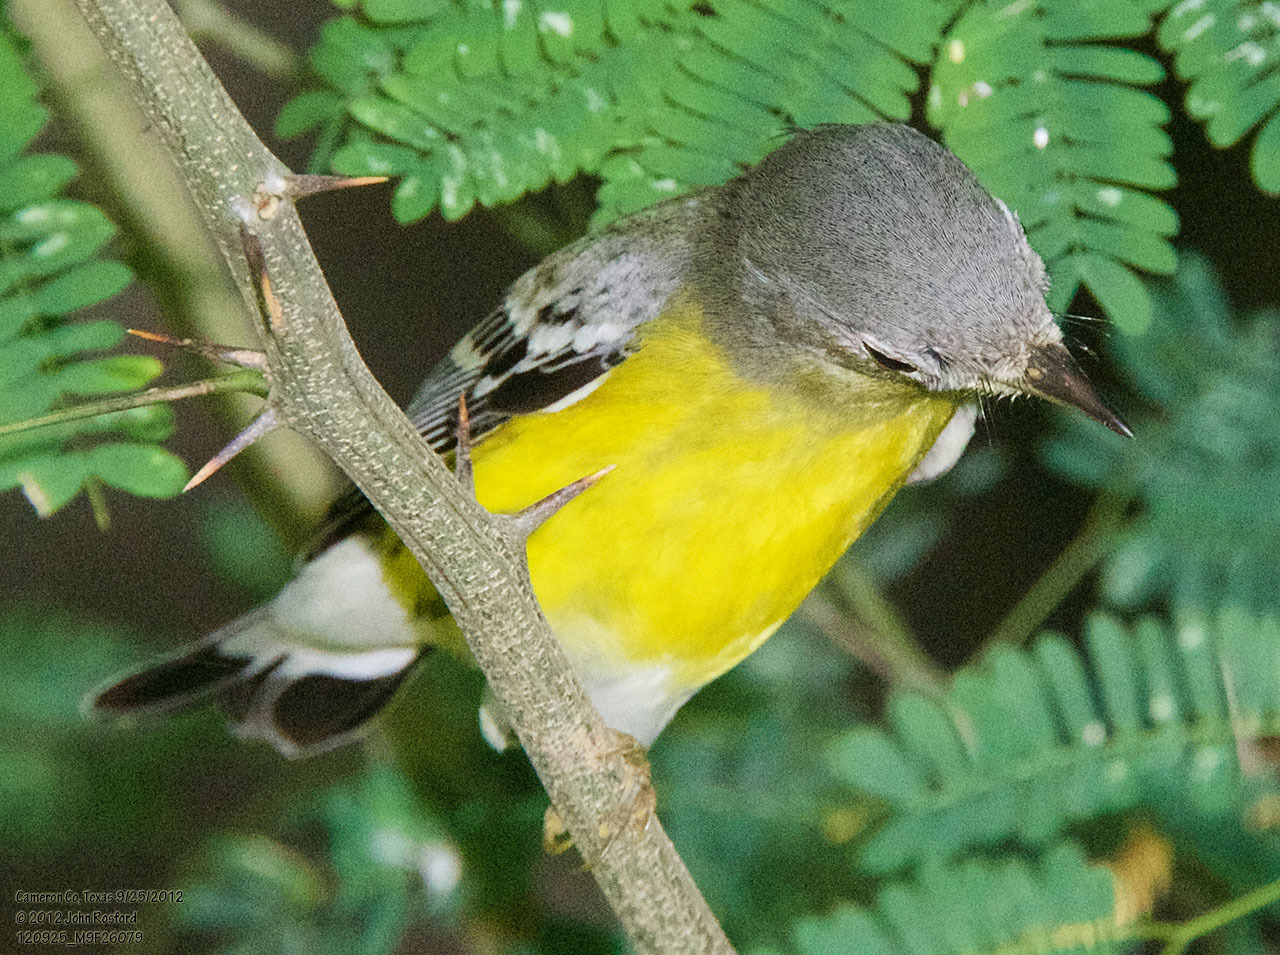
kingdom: Animalia
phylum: Chordata
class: Aves
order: Passeriformes
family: Parulidae
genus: Setophaga
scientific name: Setophaga magnolia
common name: Magnolia warbler
